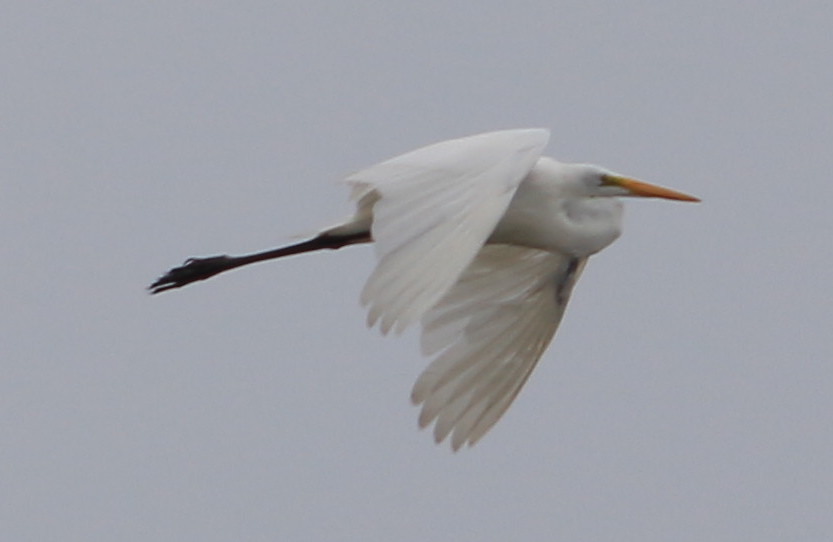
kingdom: Animalia
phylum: Chordata
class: Aves
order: Pelecaniformes
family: Ardeidae
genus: Ardea
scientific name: Ardea alba
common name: Great egret
